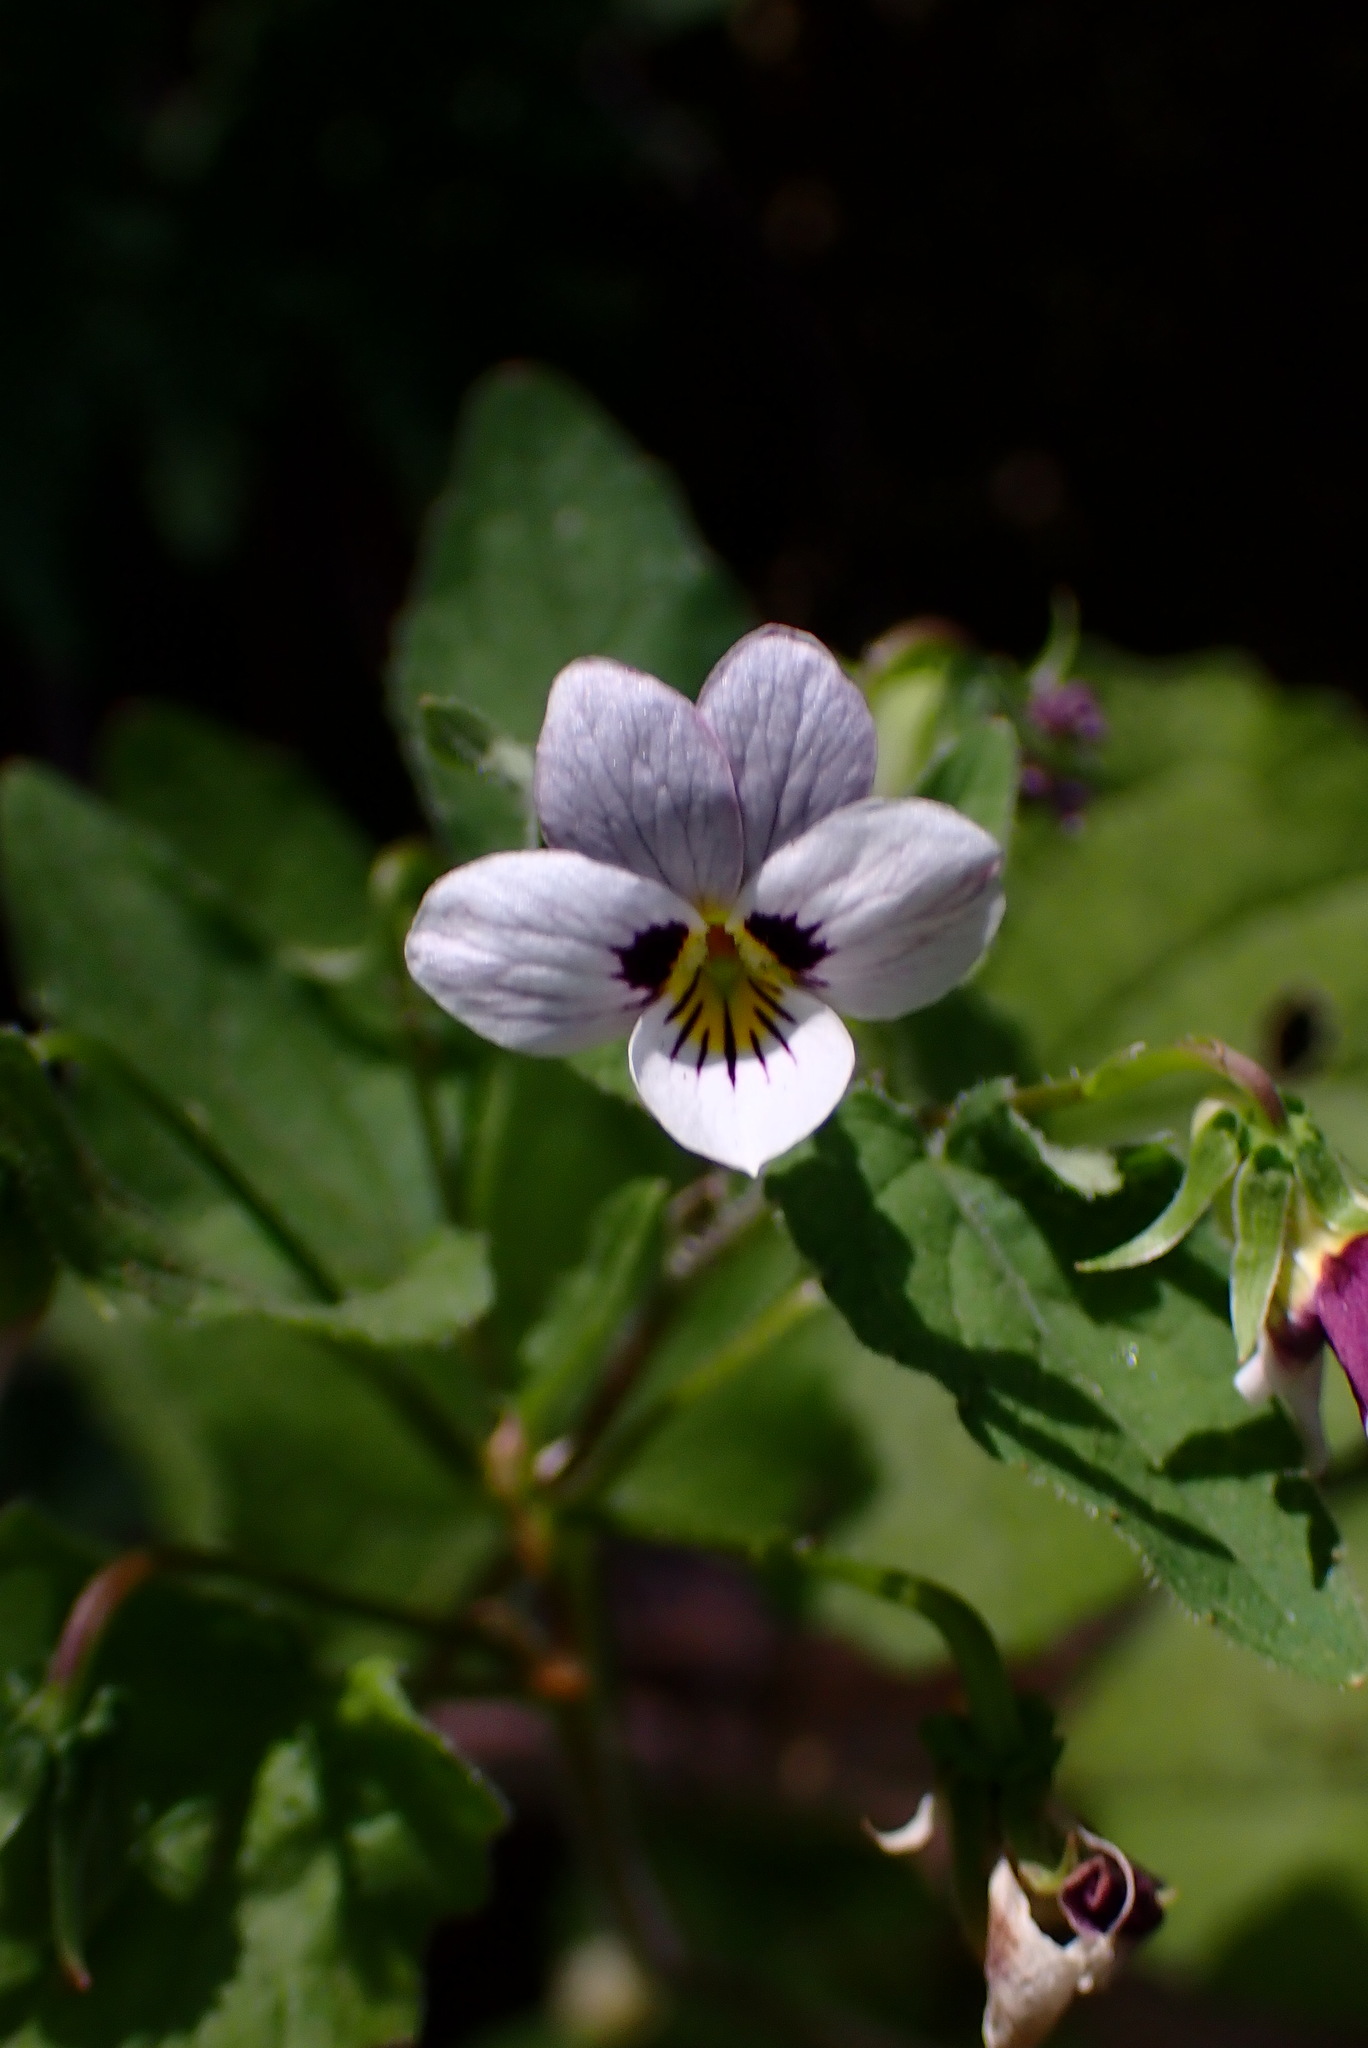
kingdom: Plantae
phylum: Tracheophyta
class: Magnoliopsida
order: Malpighiales
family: Violaceae
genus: Viola
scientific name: Viola ocellata
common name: Western heart's ease
